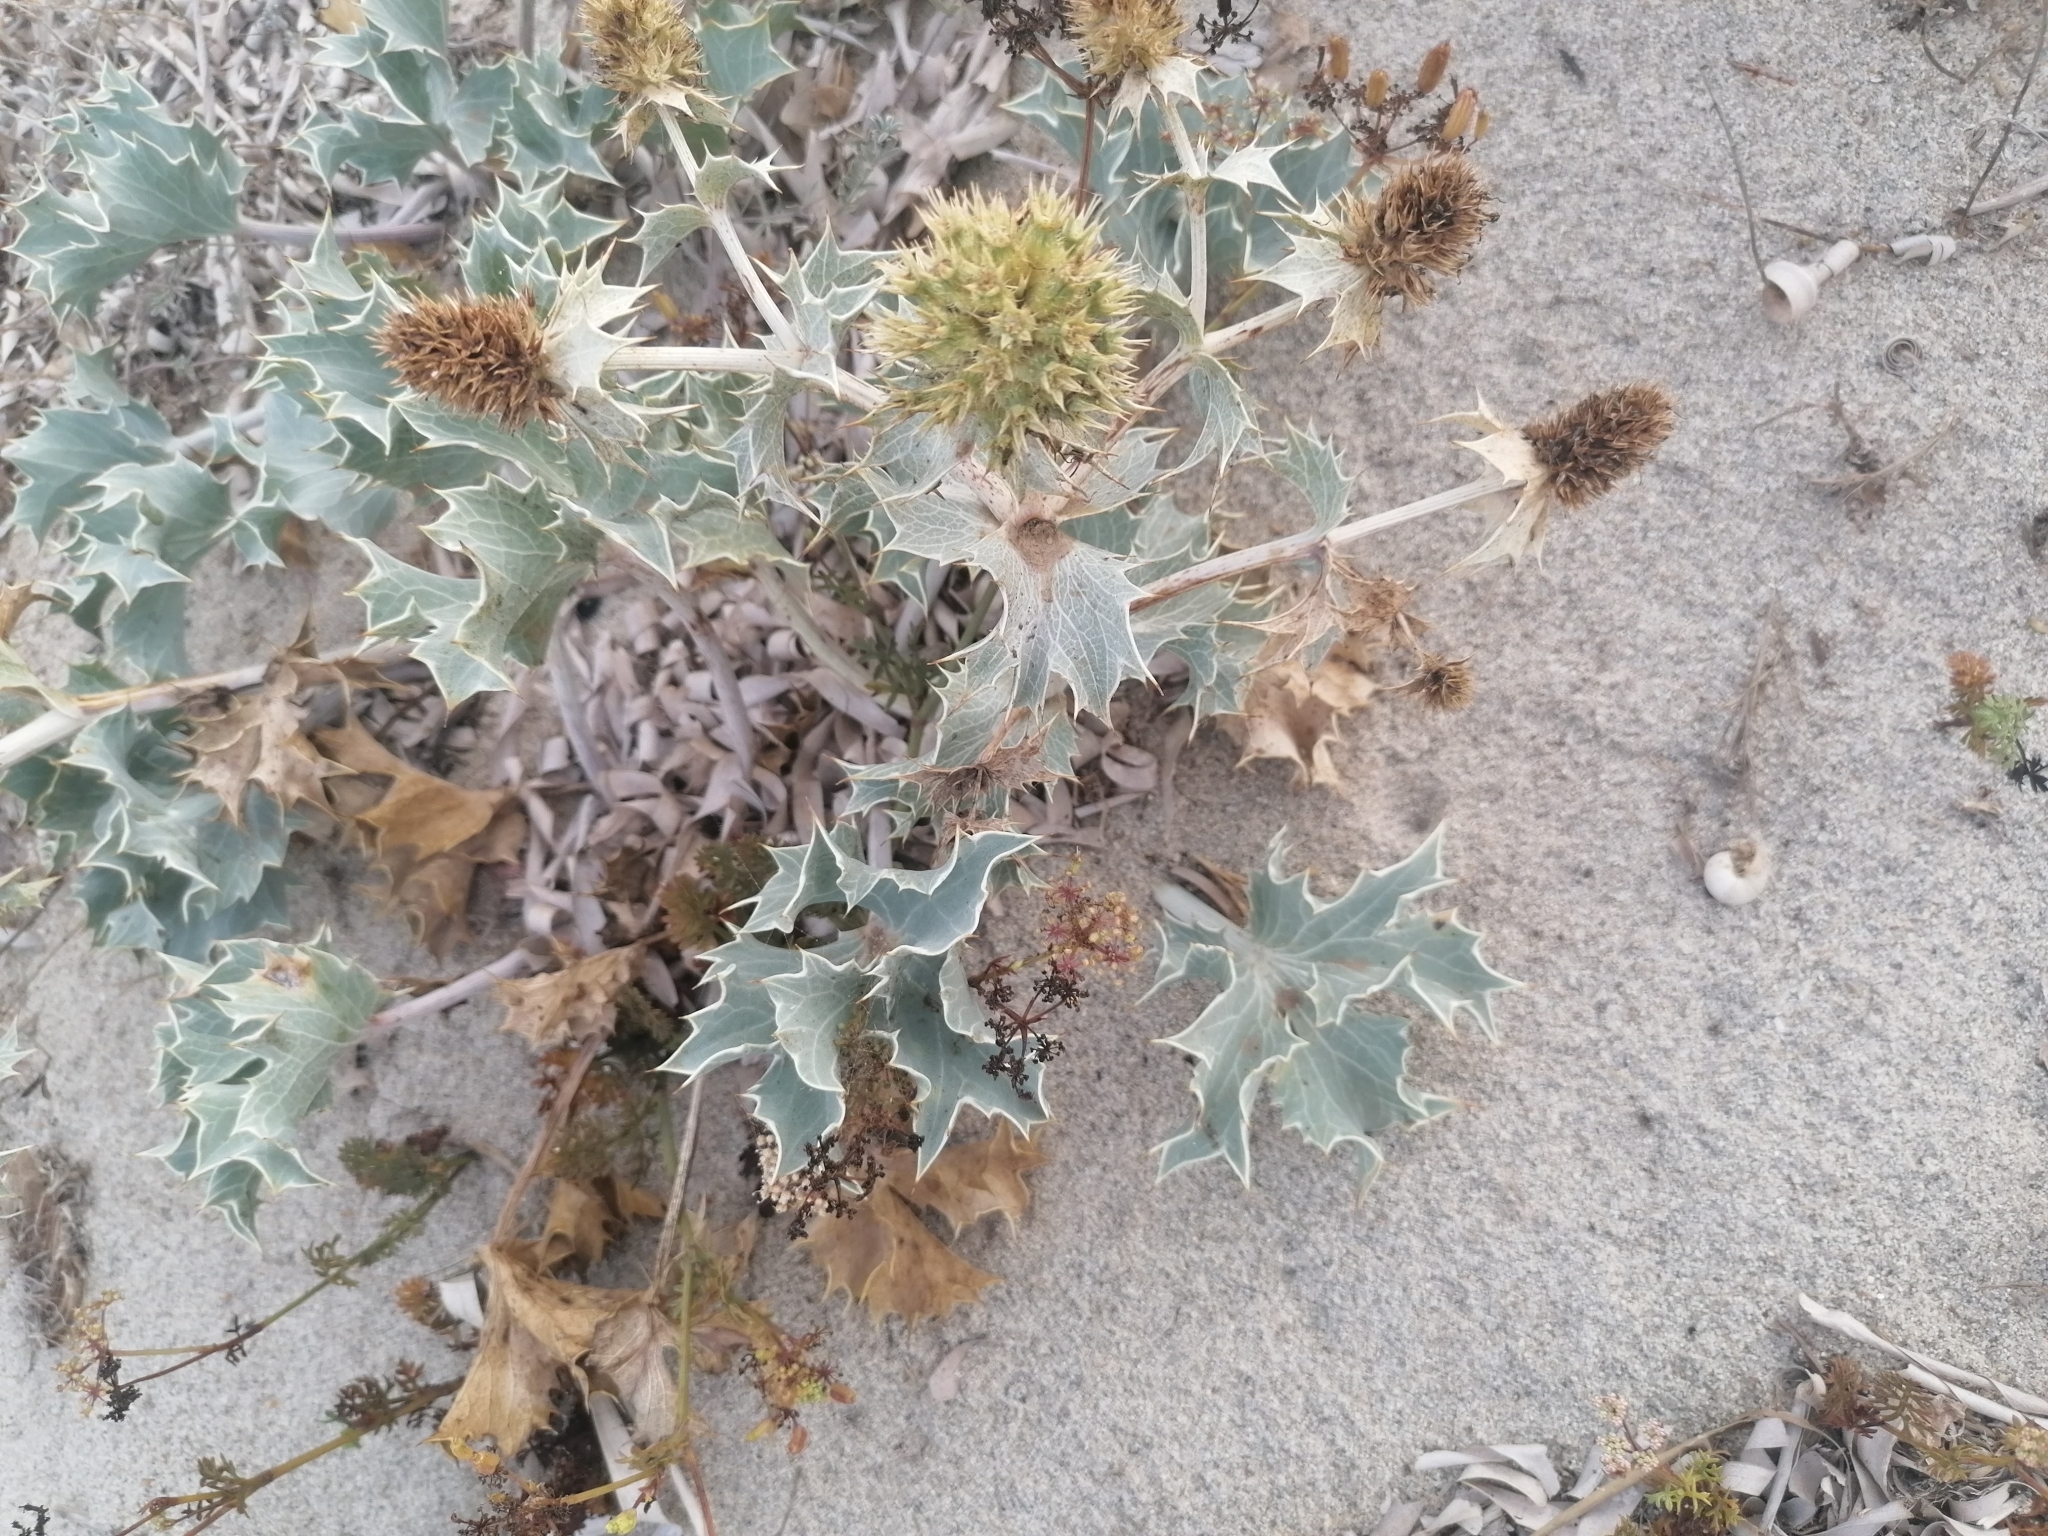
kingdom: Plantae
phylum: Tracheophyta
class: Magnoliopsida
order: Apiales
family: Apiaceae
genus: Eryngium
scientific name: Eryngium maritimum
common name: Sea-holly
